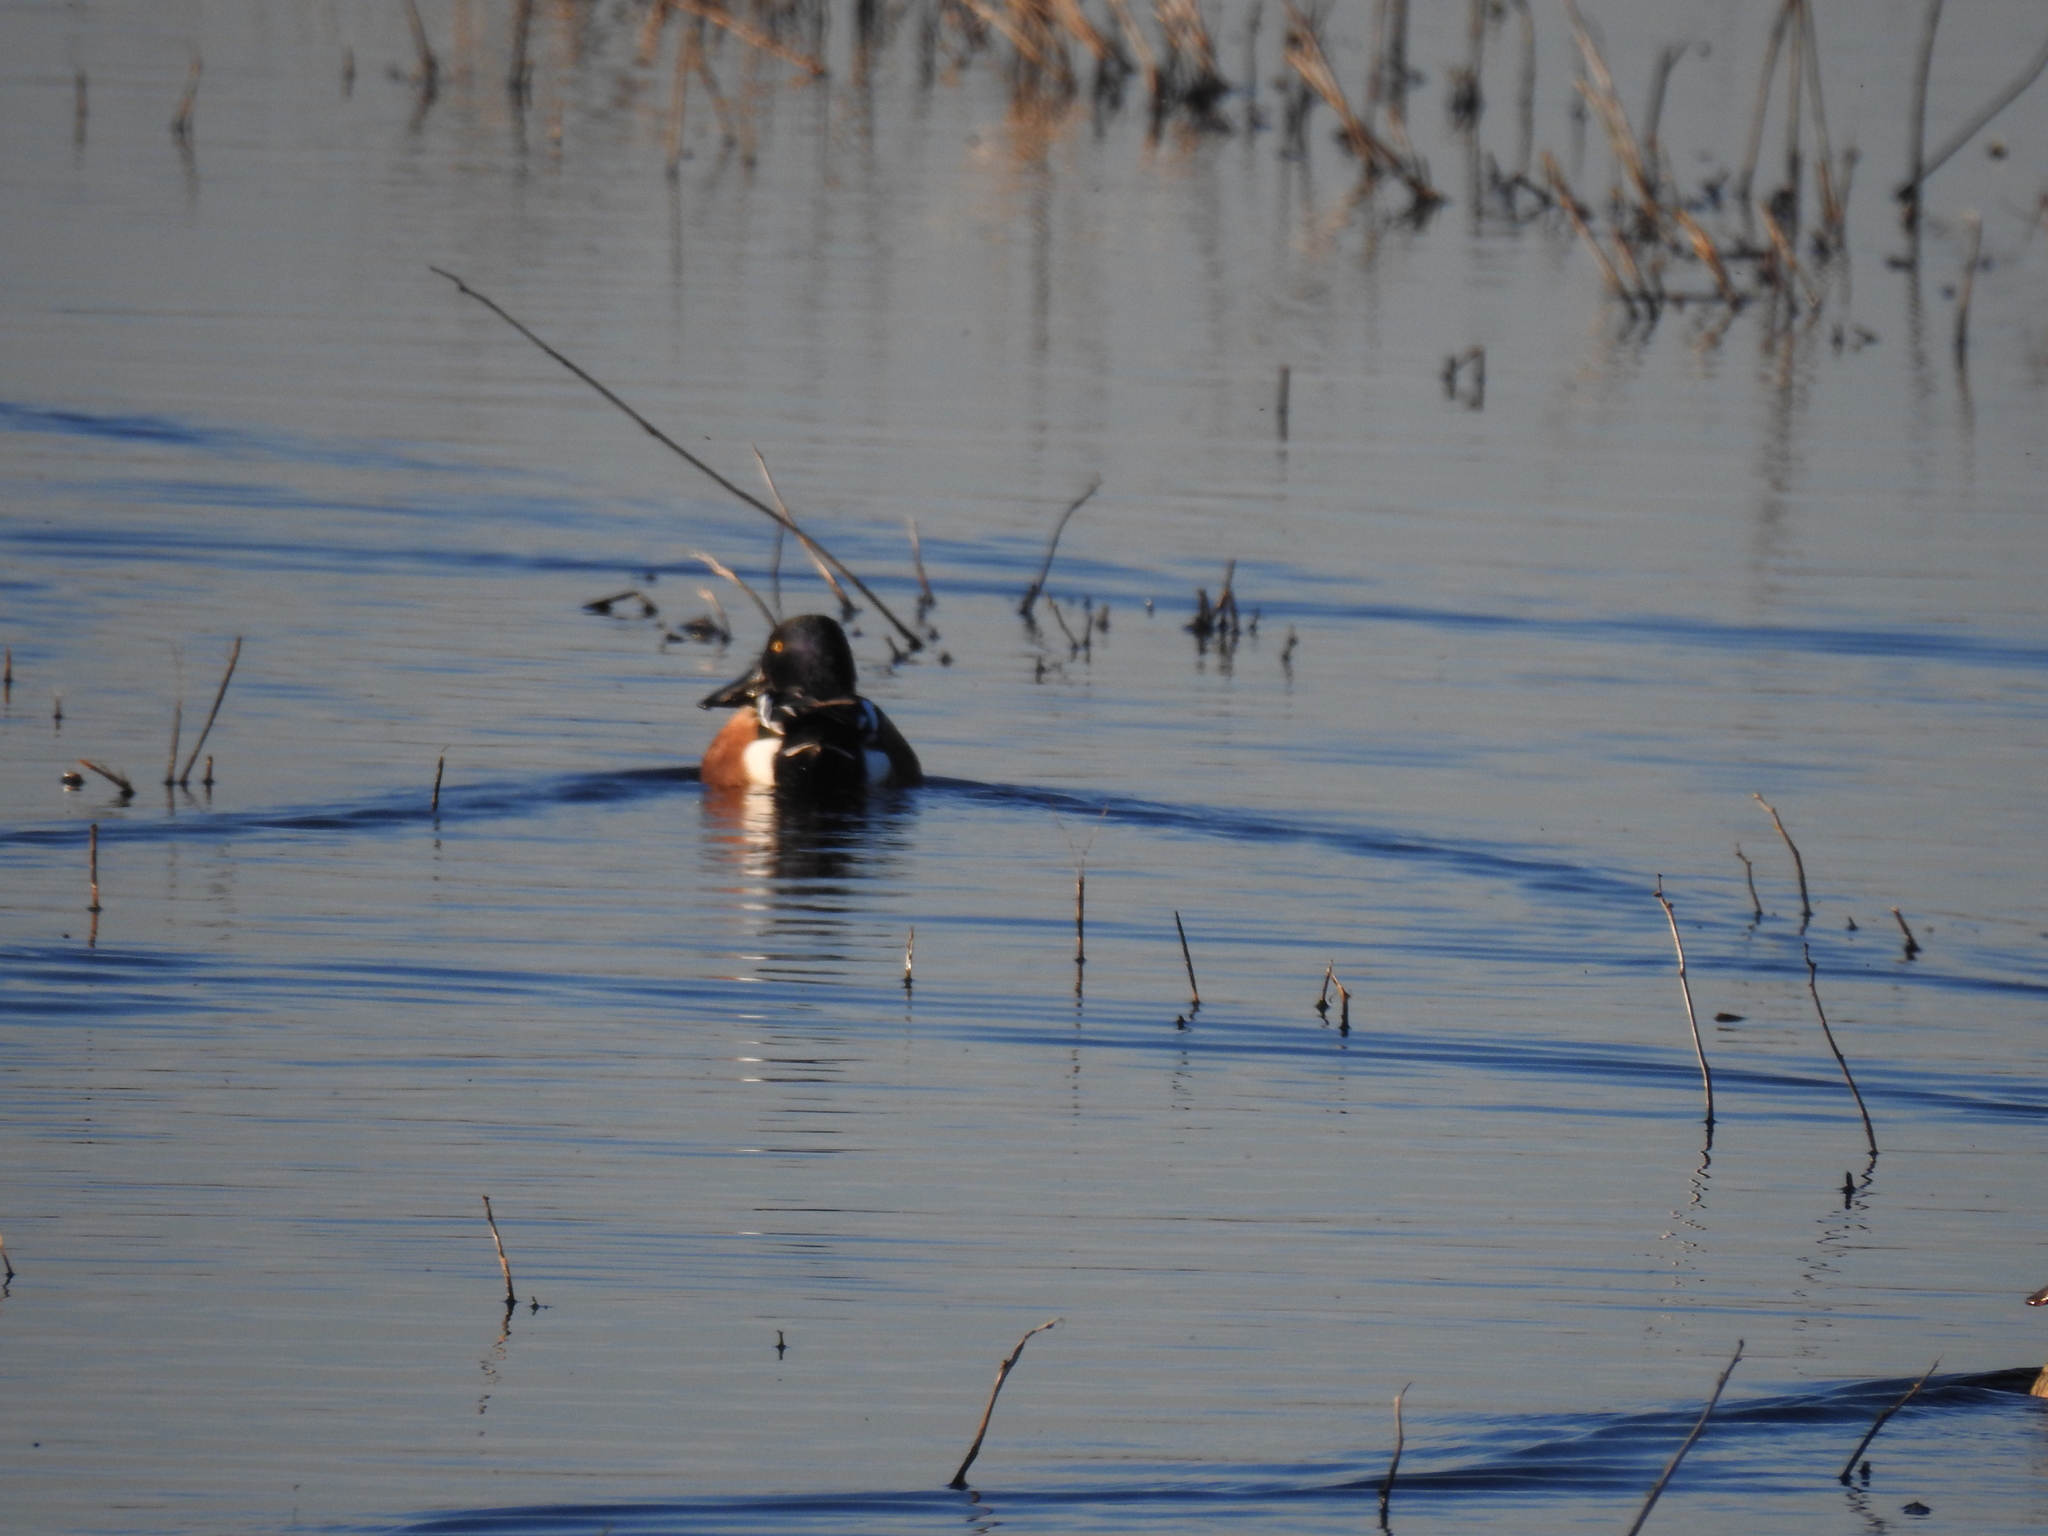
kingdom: Animalia
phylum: Chordata
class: Aves
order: Anseriformes
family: Anatidae
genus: Spatula
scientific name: Spatula clypeata
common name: Northern shoveler
